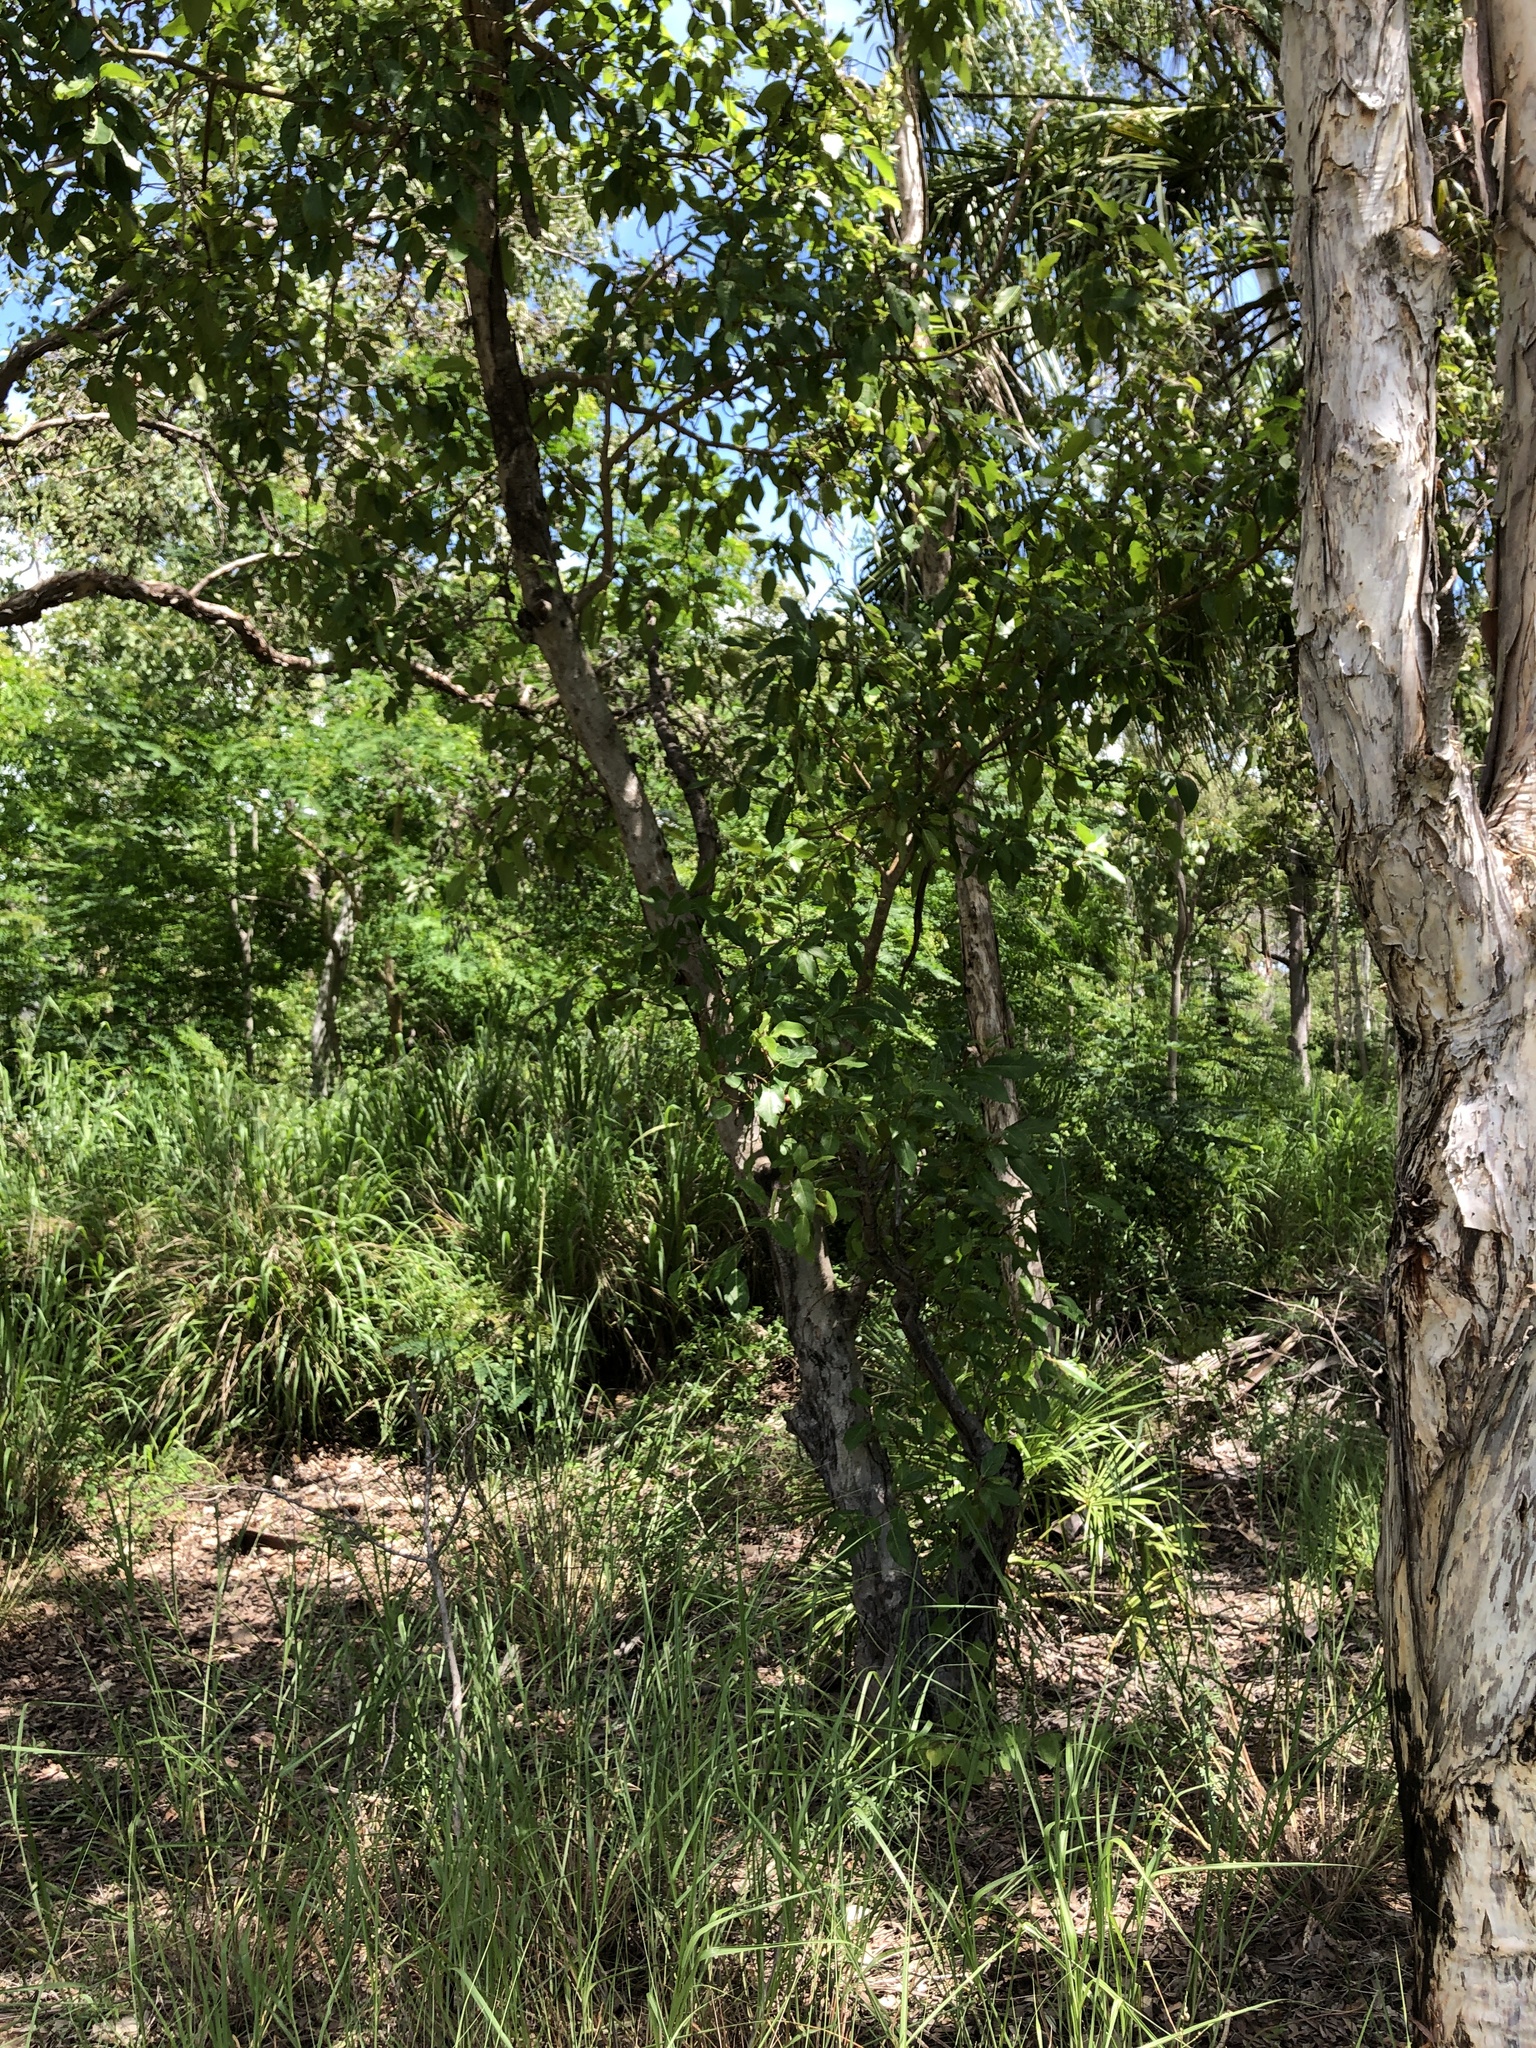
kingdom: Plantae
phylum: Tracheophyta
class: Magnoliopsida
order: Rosales
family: Moraceae
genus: Ficus
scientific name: Ficus racemosa
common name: Cluster fig
